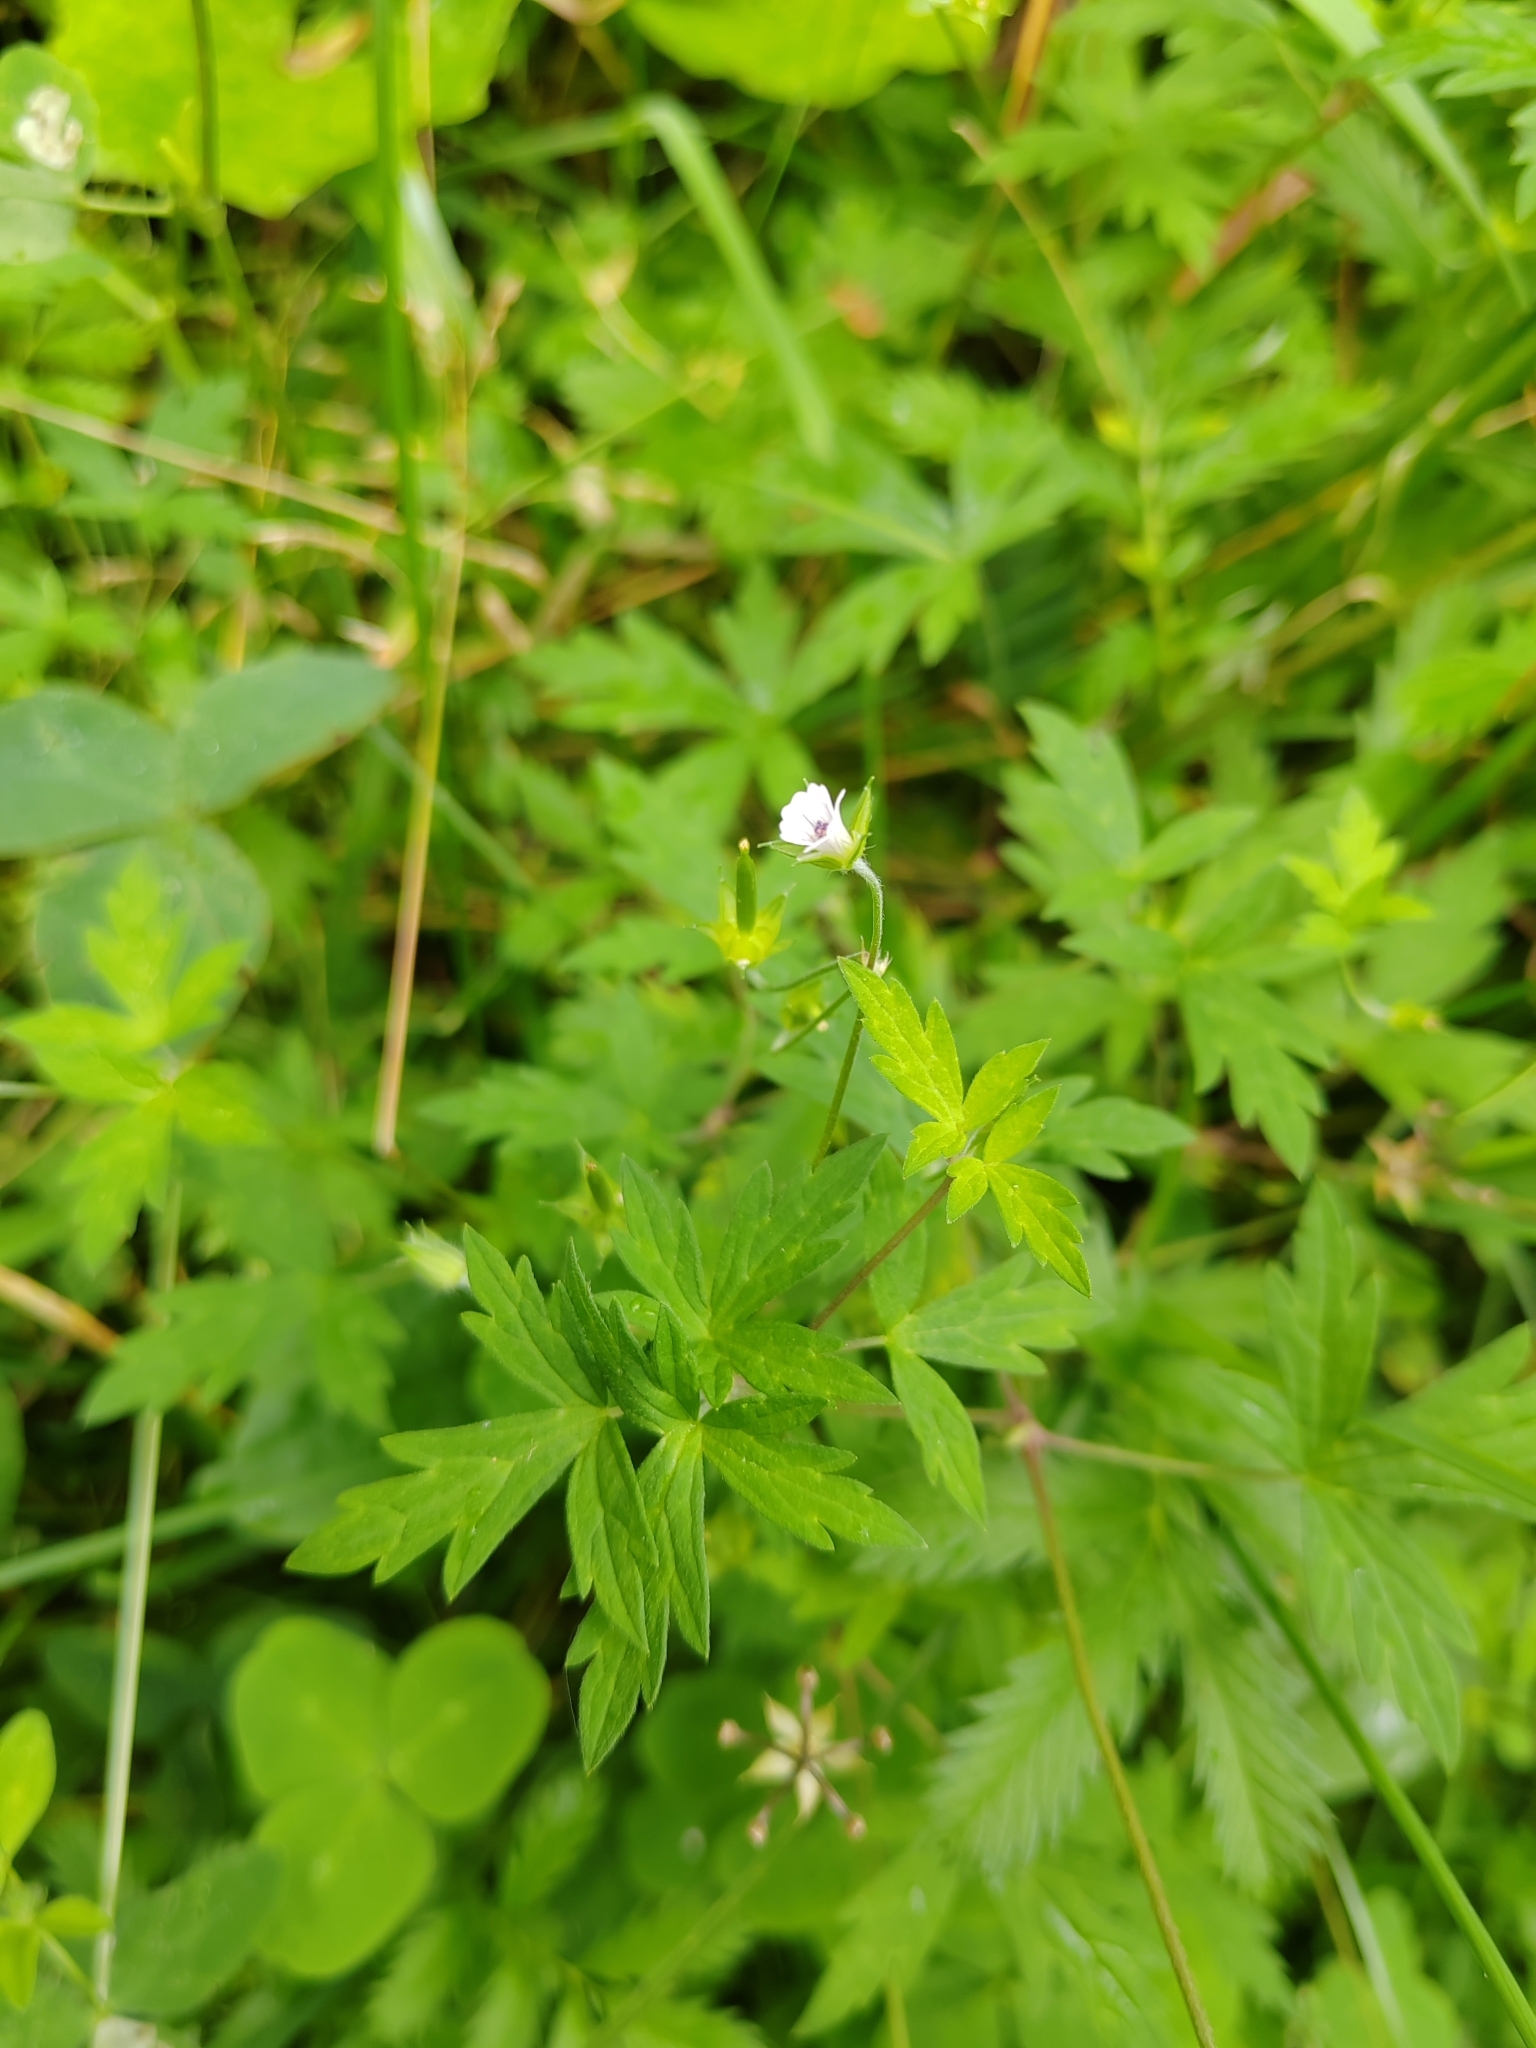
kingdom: Plantae
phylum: Tracheophyta
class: Magnoliopsida
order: Geraniales
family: Geraniaceae
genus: Geranium
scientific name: Geranium sibiricum
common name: Siberian crane's-bill
